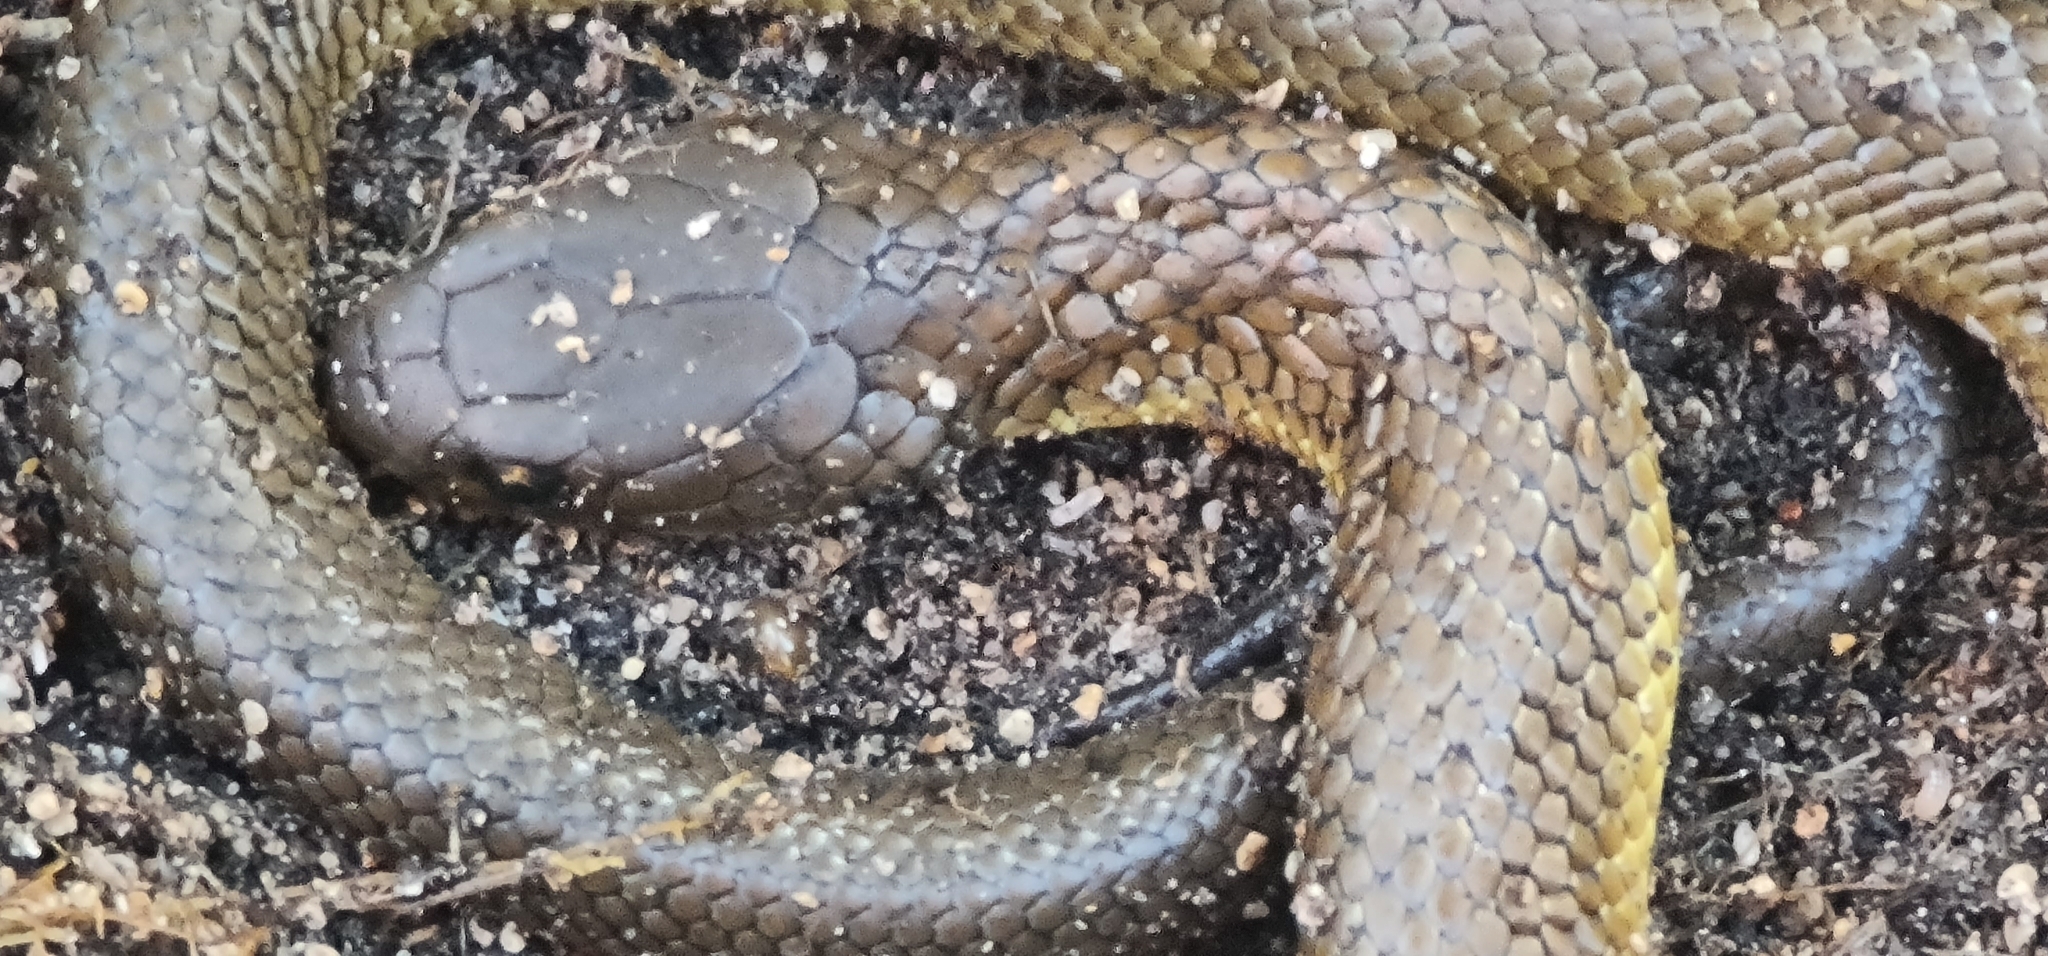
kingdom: Animalia
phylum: Chordata
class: Squamata
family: Elapidae
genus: Notechis
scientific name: Notechis scutatus
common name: Mainland tiger snake
